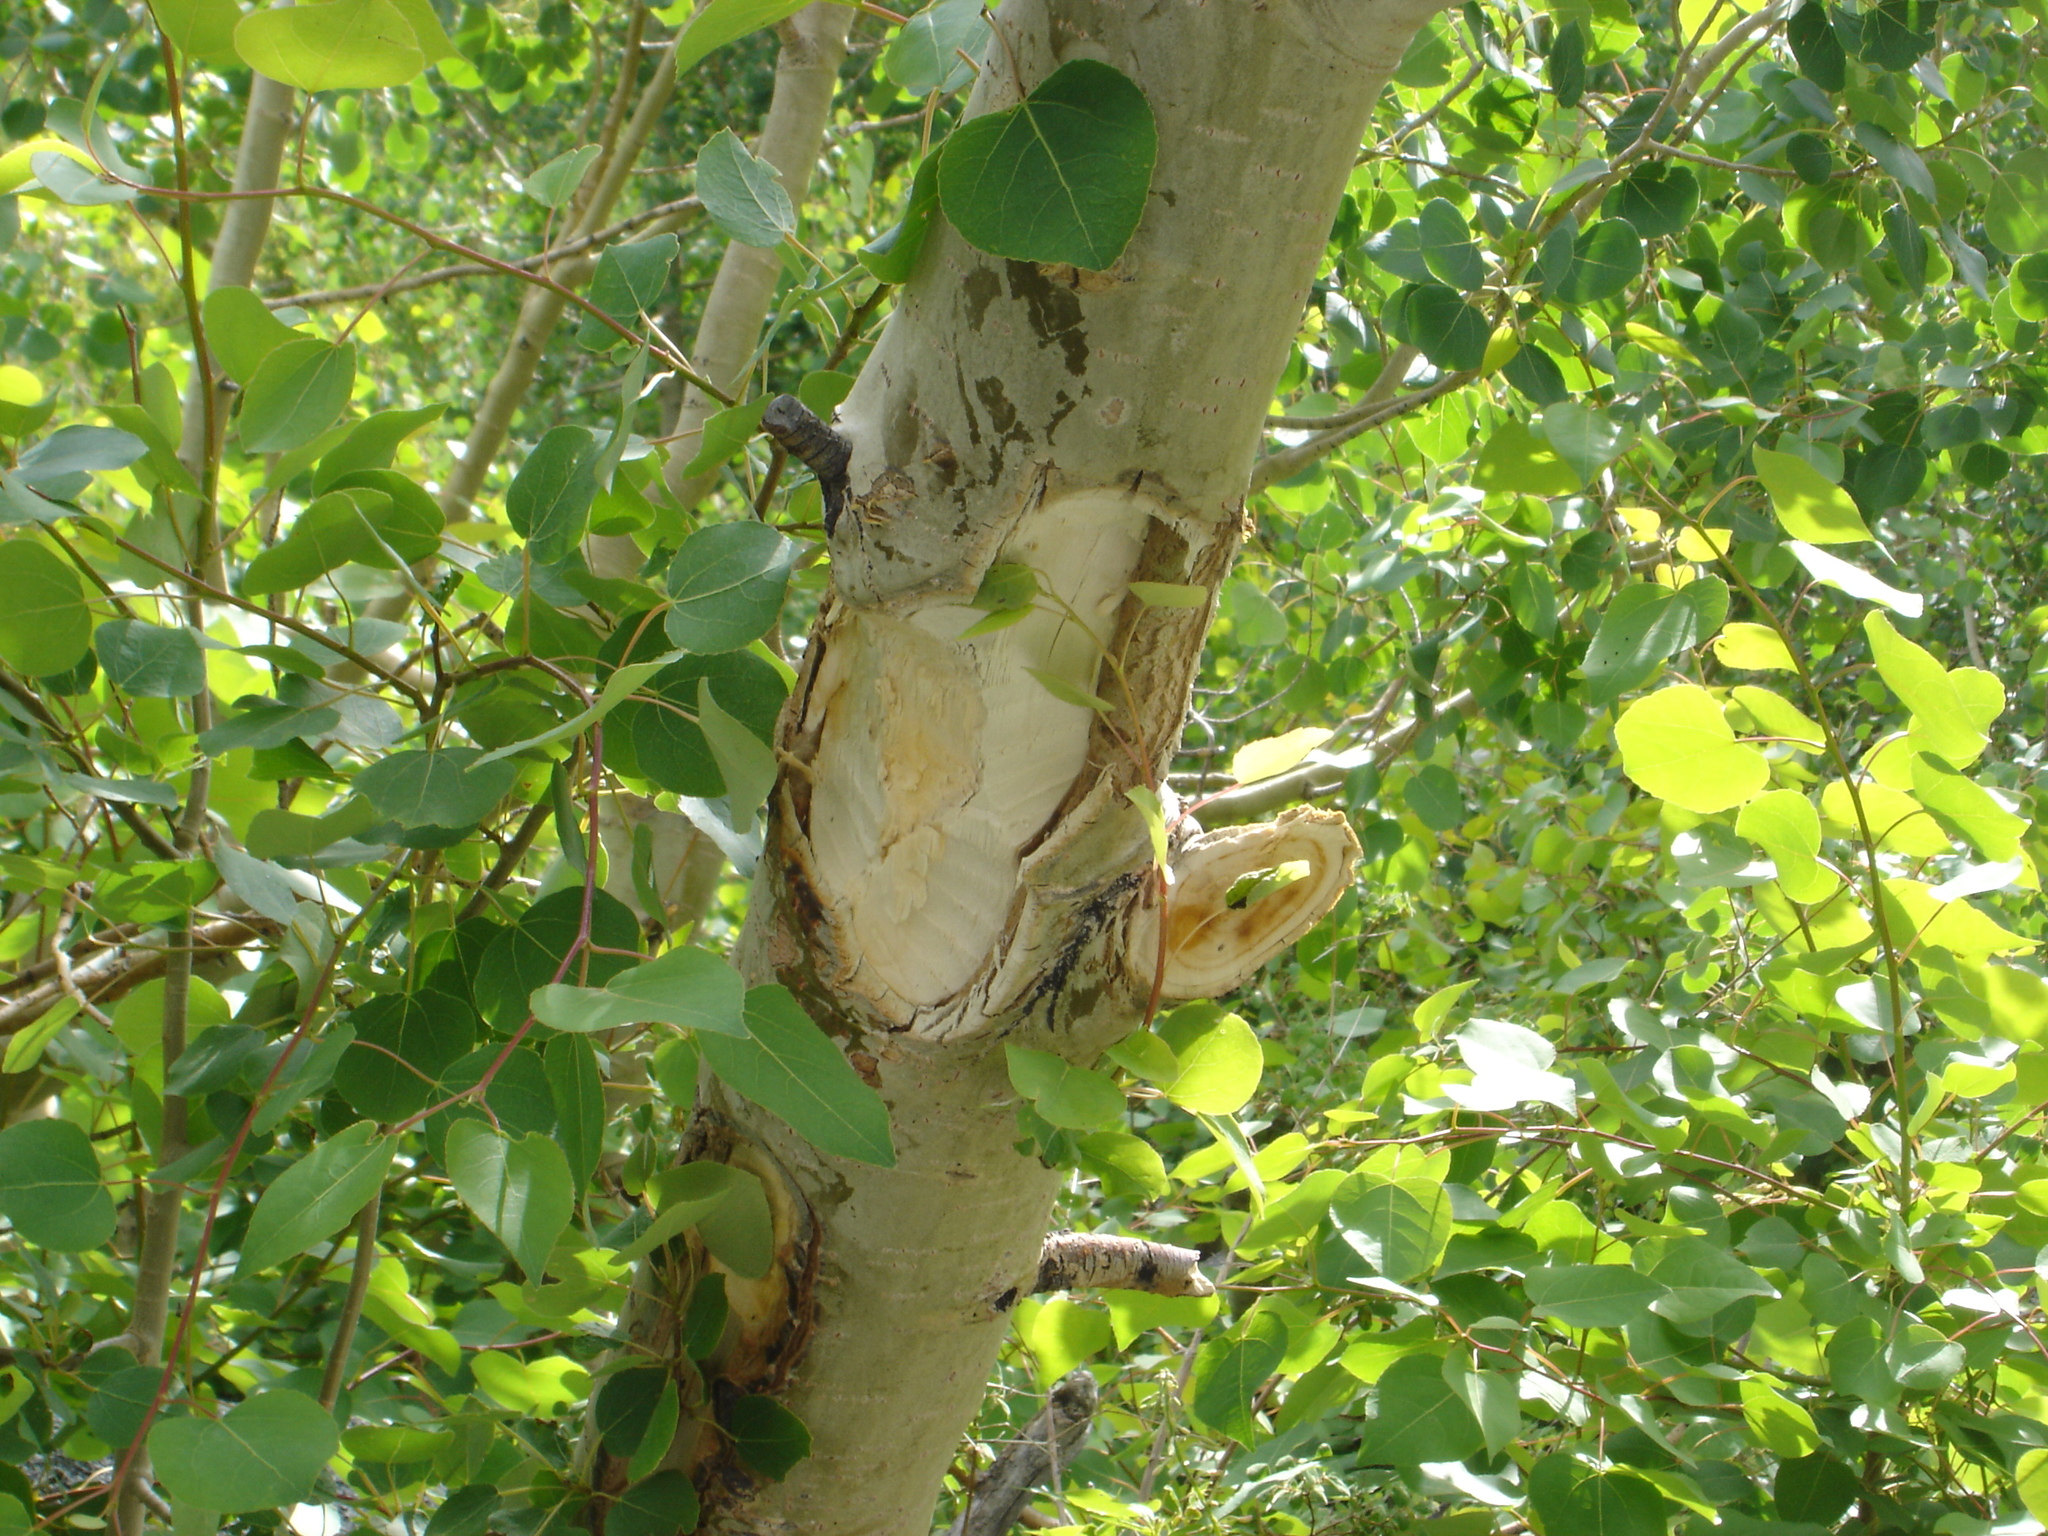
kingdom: Animalia
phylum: Chordata
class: Mammalia
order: Rodentia
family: Castoridae
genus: Castor
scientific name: Castor canadensis
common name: American beaver
